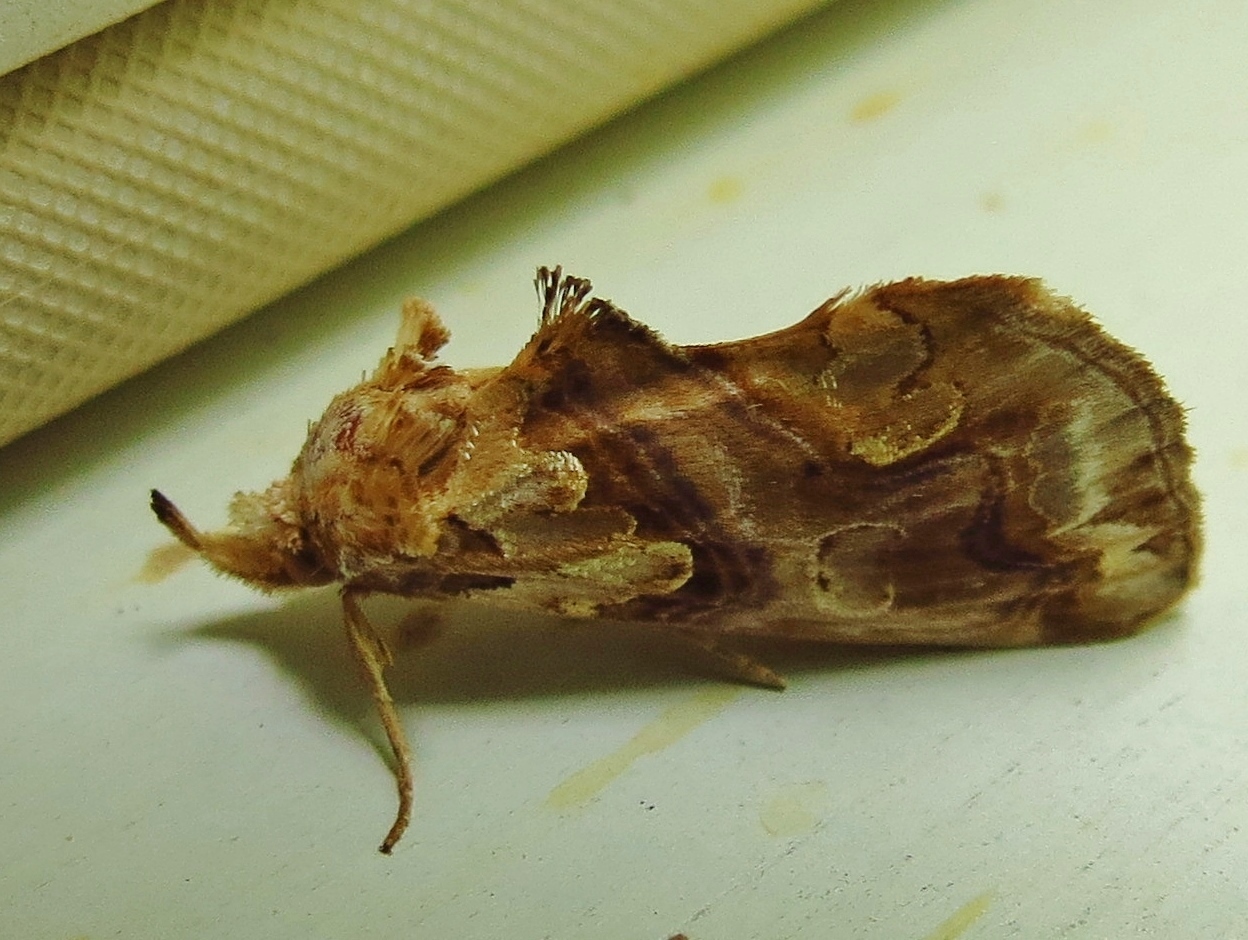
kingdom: Animalia
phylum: Arthropoda
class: Insecta
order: Lepidoptera
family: Erebidae
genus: Plusiodonta
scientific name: Plusiodonta compressipalpis
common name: Moonseed moth
